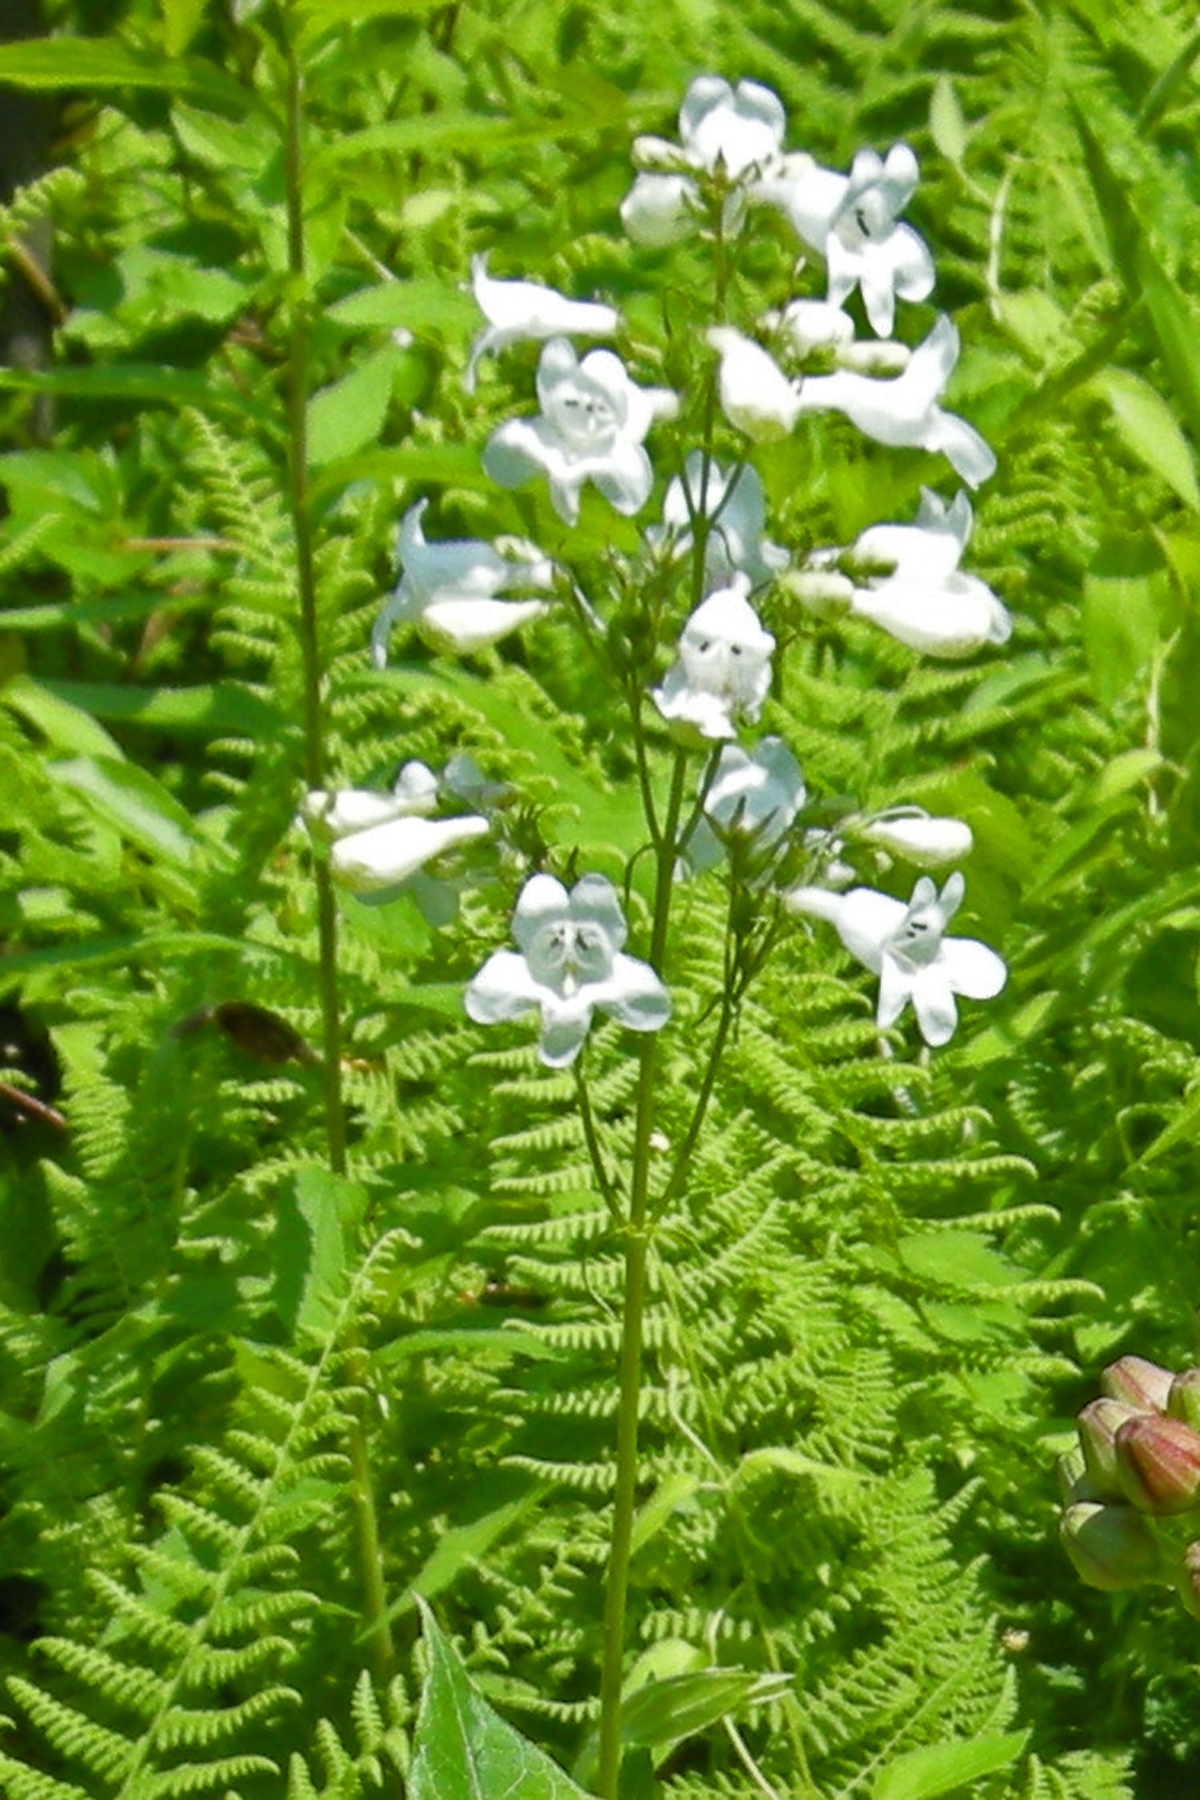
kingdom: Plantae
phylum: Tracheophyta
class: Magnoliopsida
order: Lamiales
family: Plantaginaceae
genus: Penstemon
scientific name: Penstemon digitalis
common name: Foxglove beardtongue
